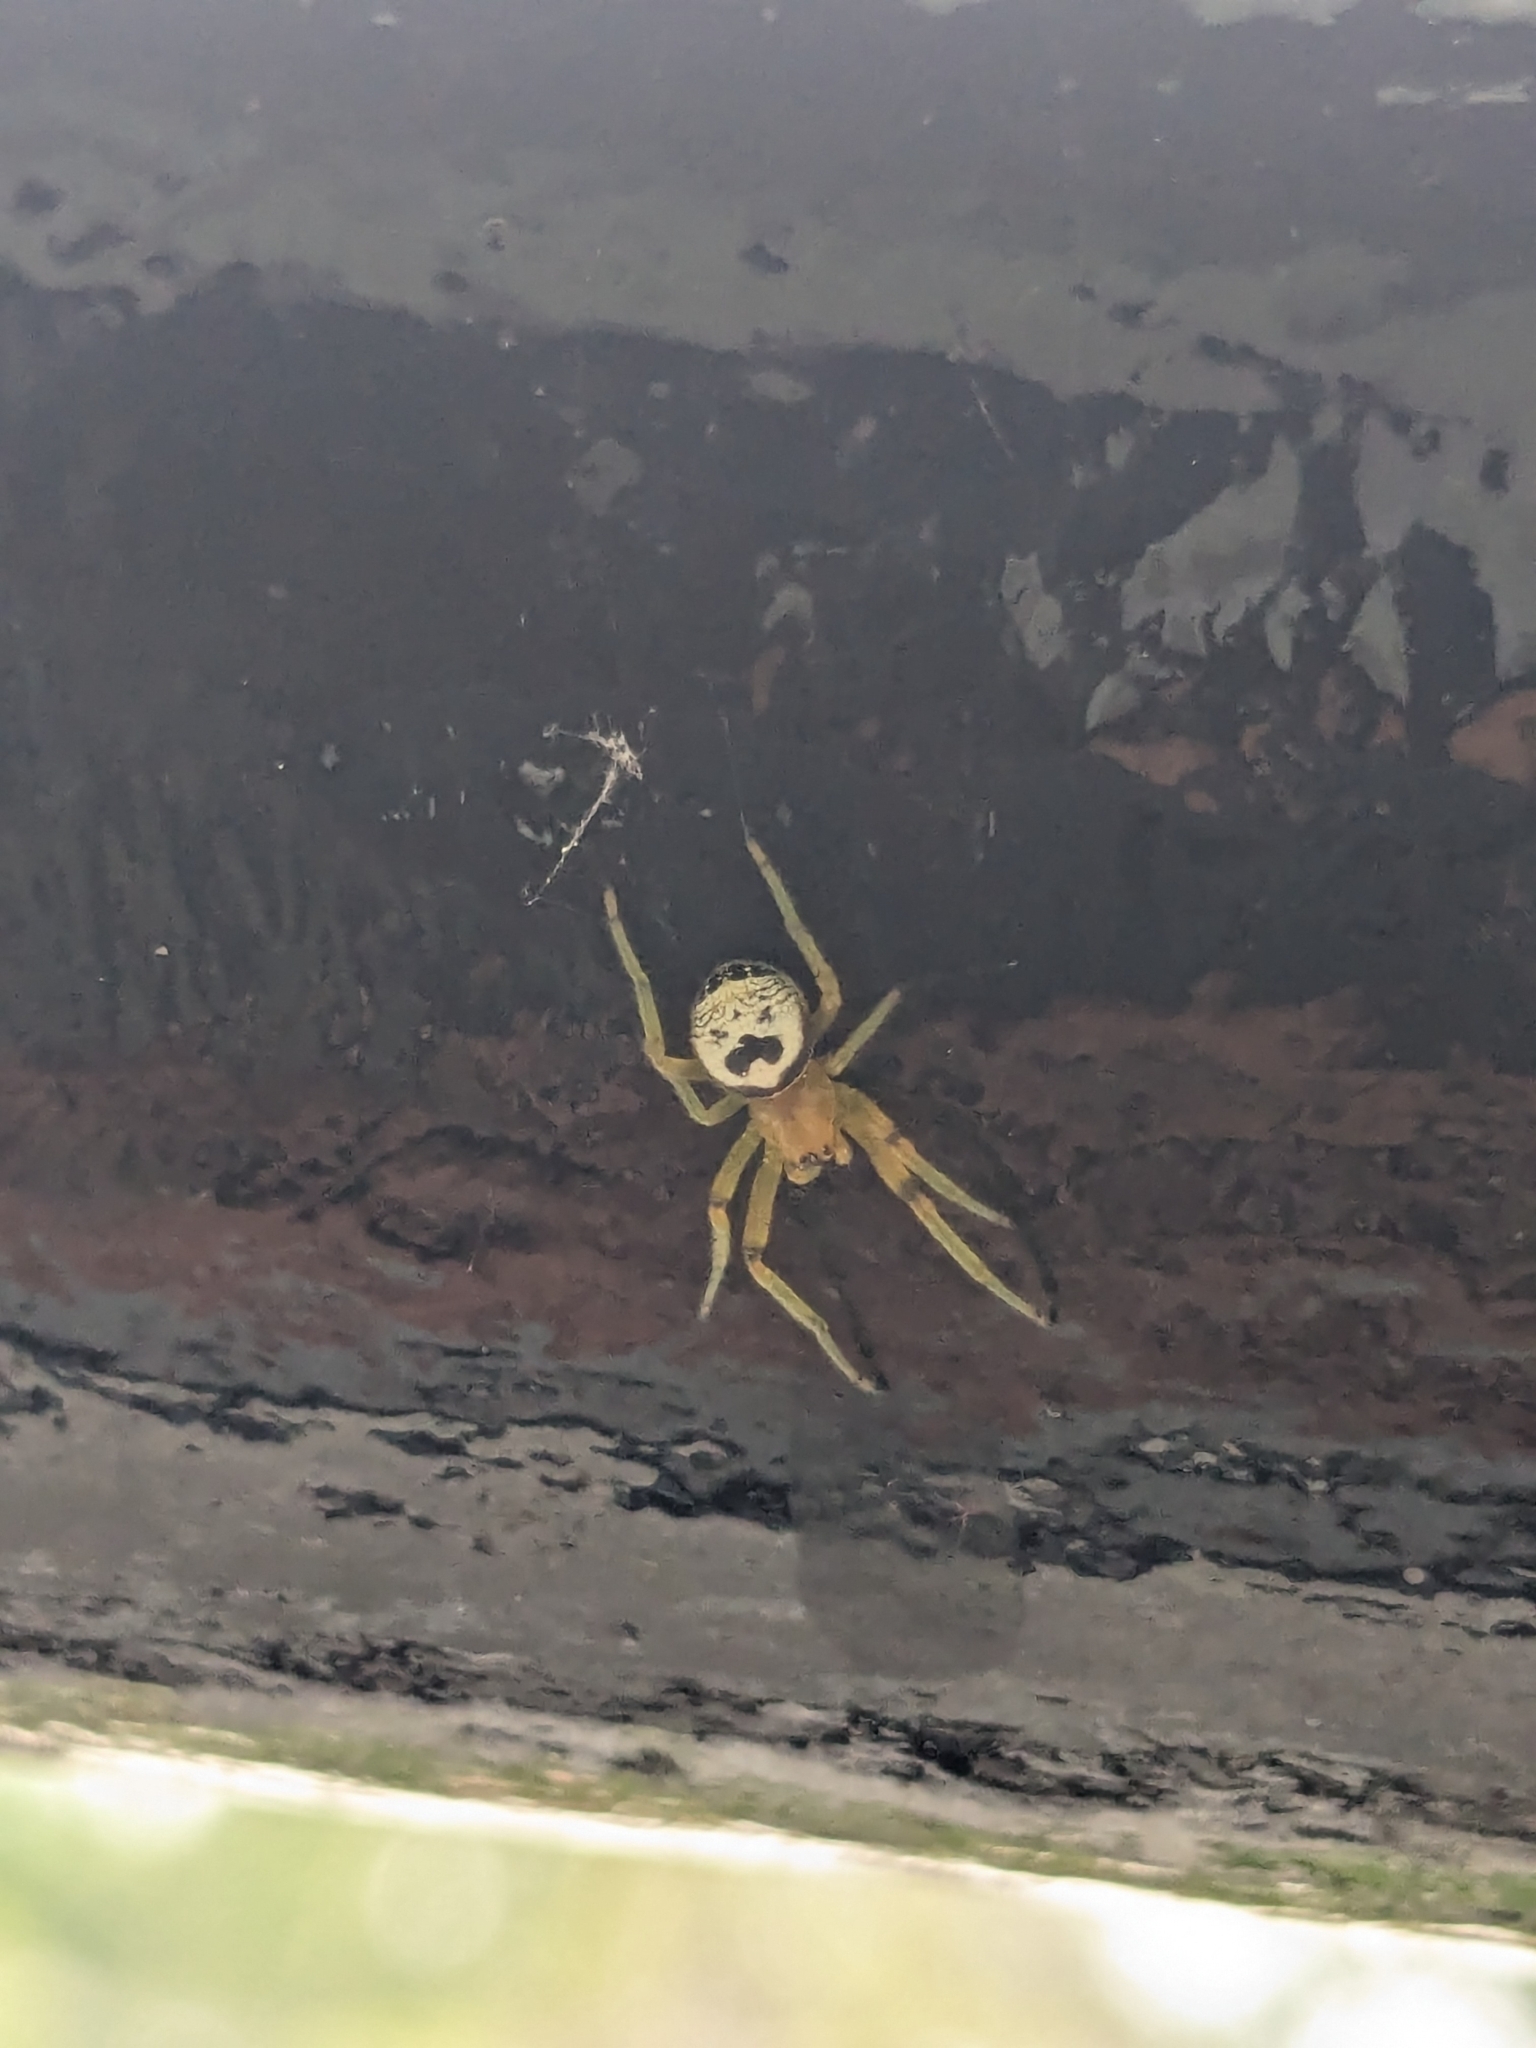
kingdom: Animalia
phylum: Arthropoda
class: Arachnida
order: Araneae
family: Araneidae
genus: Bijoaraneus
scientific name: Bijoaraneus mitificus
